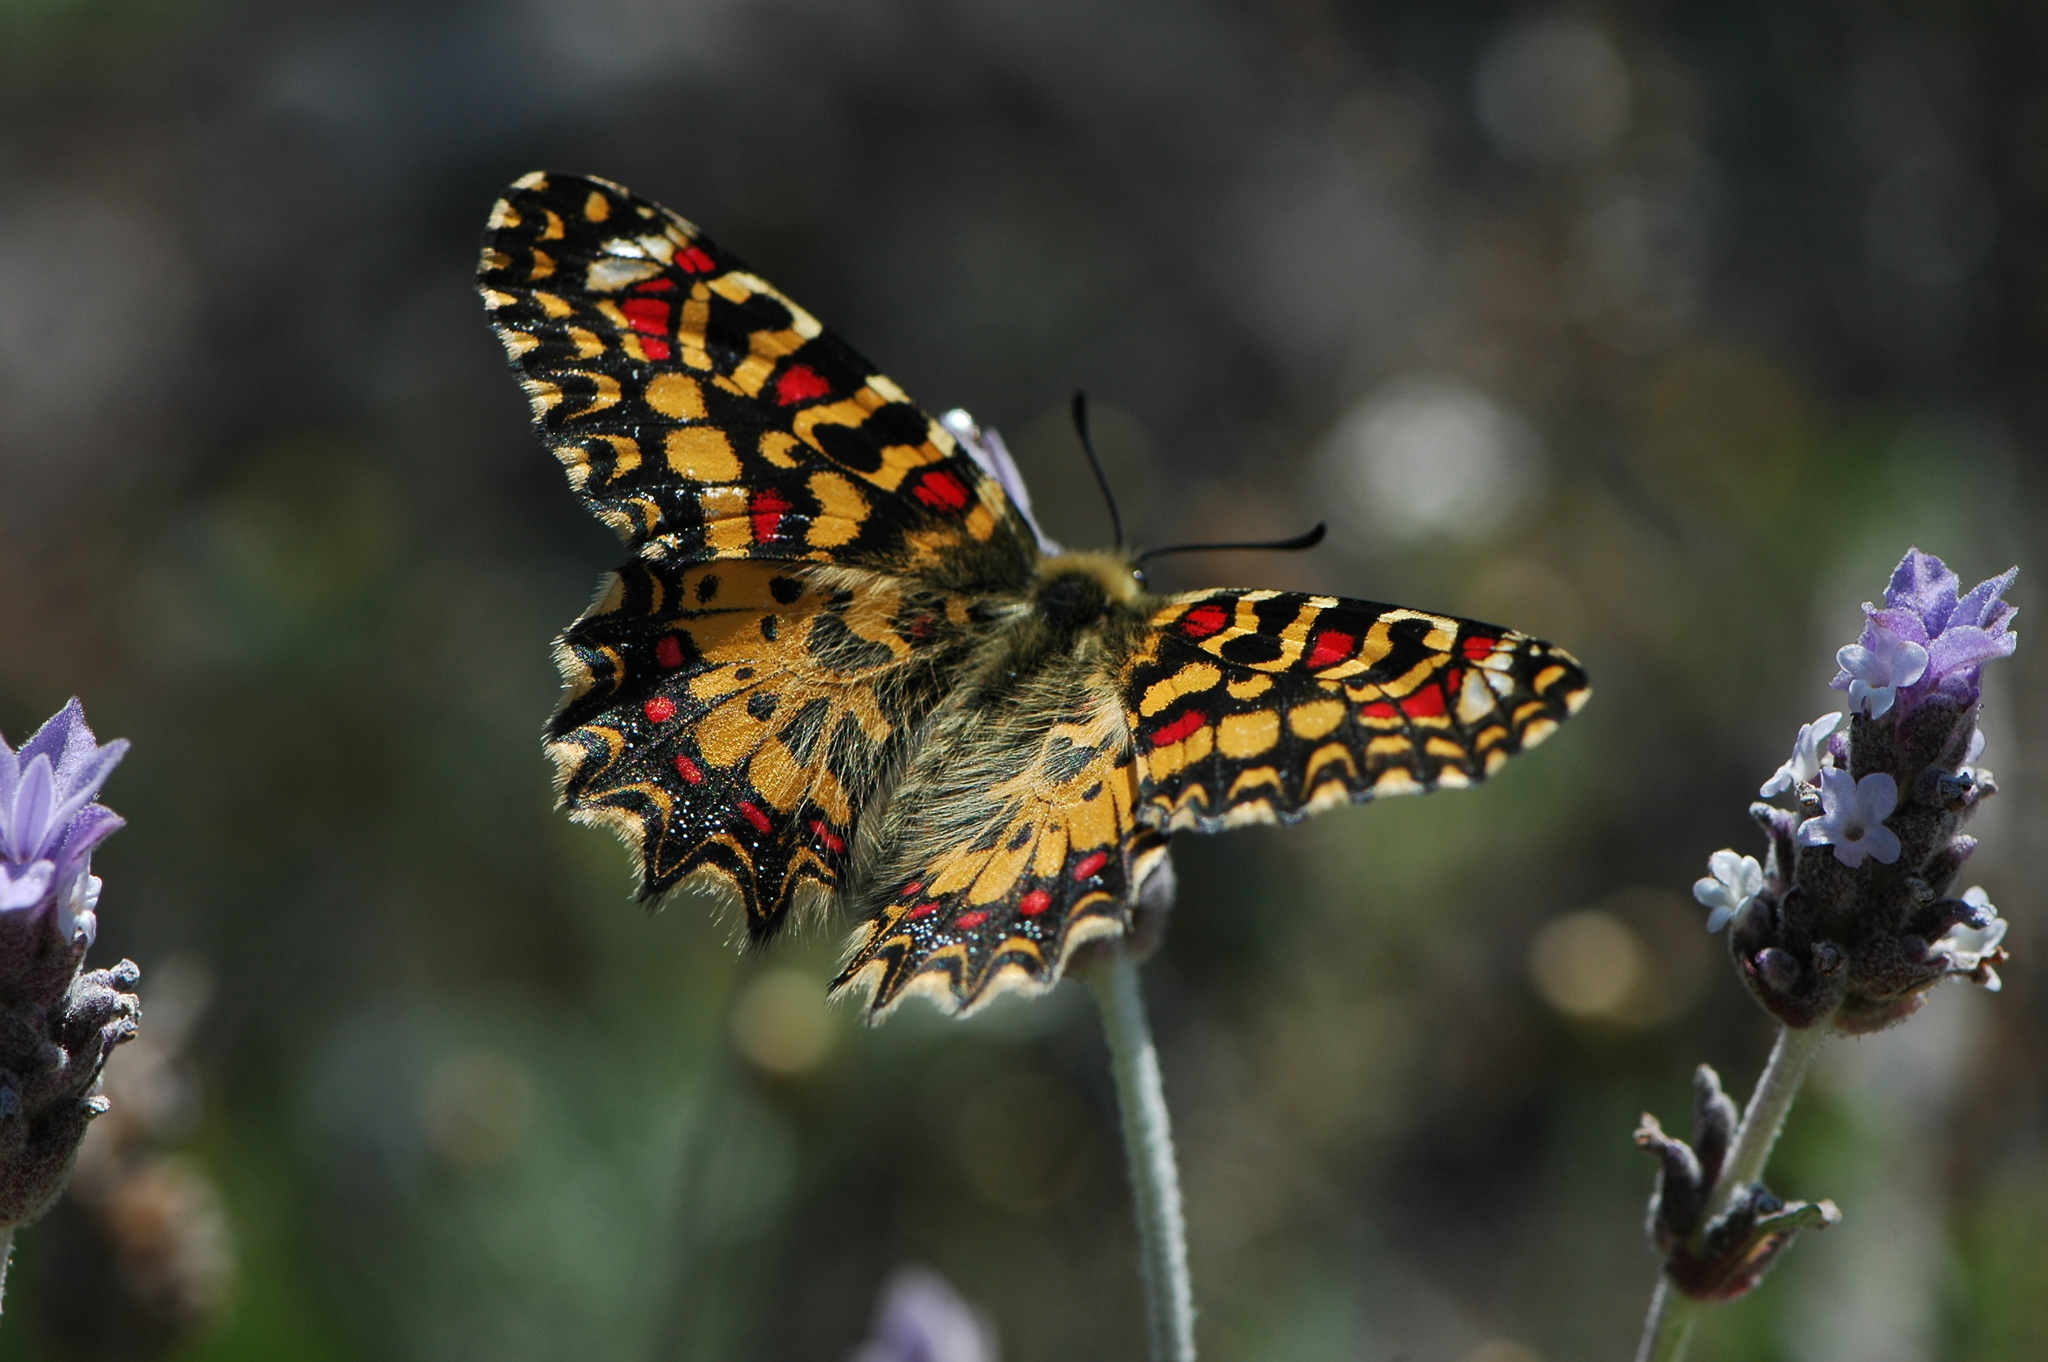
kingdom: Animalia
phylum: Arthropoda
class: Insecta
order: Lepidoptera
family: Papilionidae
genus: Zerynthia
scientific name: Zerynthia rumina
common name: Spanish festoon
